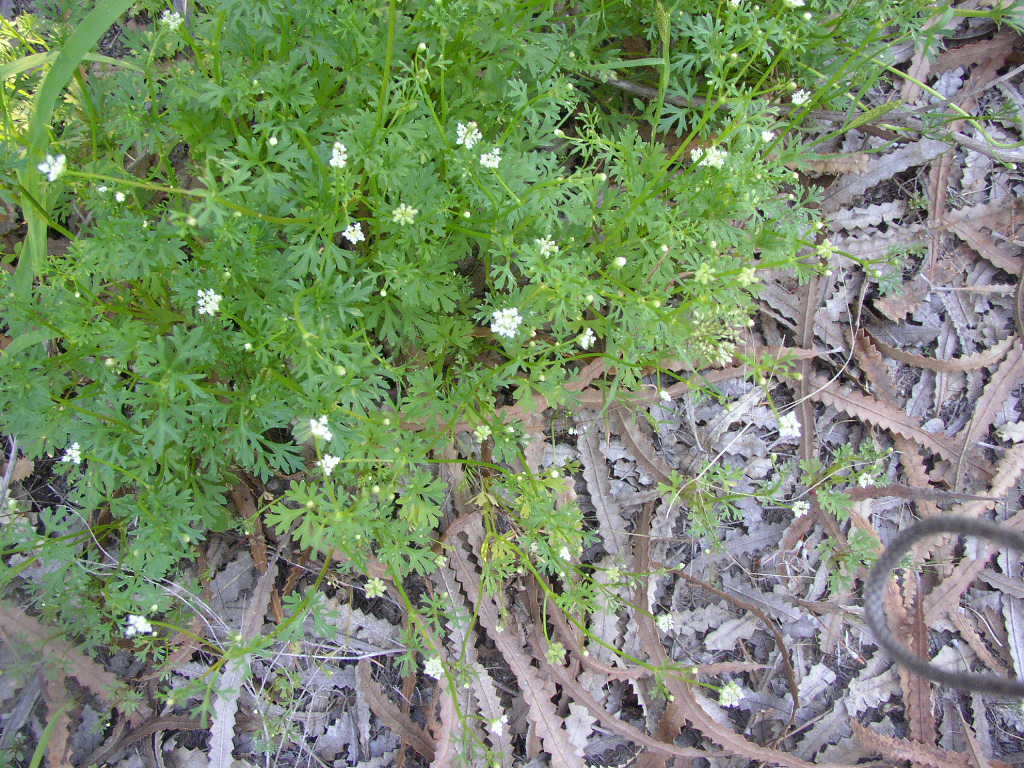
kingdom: Plantae
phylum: Tracheophyta
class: Magnoliopsida
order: Apiales
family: Araliaceae
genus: Trachymene
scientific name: Trachymene pilosa
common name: Dwarf trachymene
